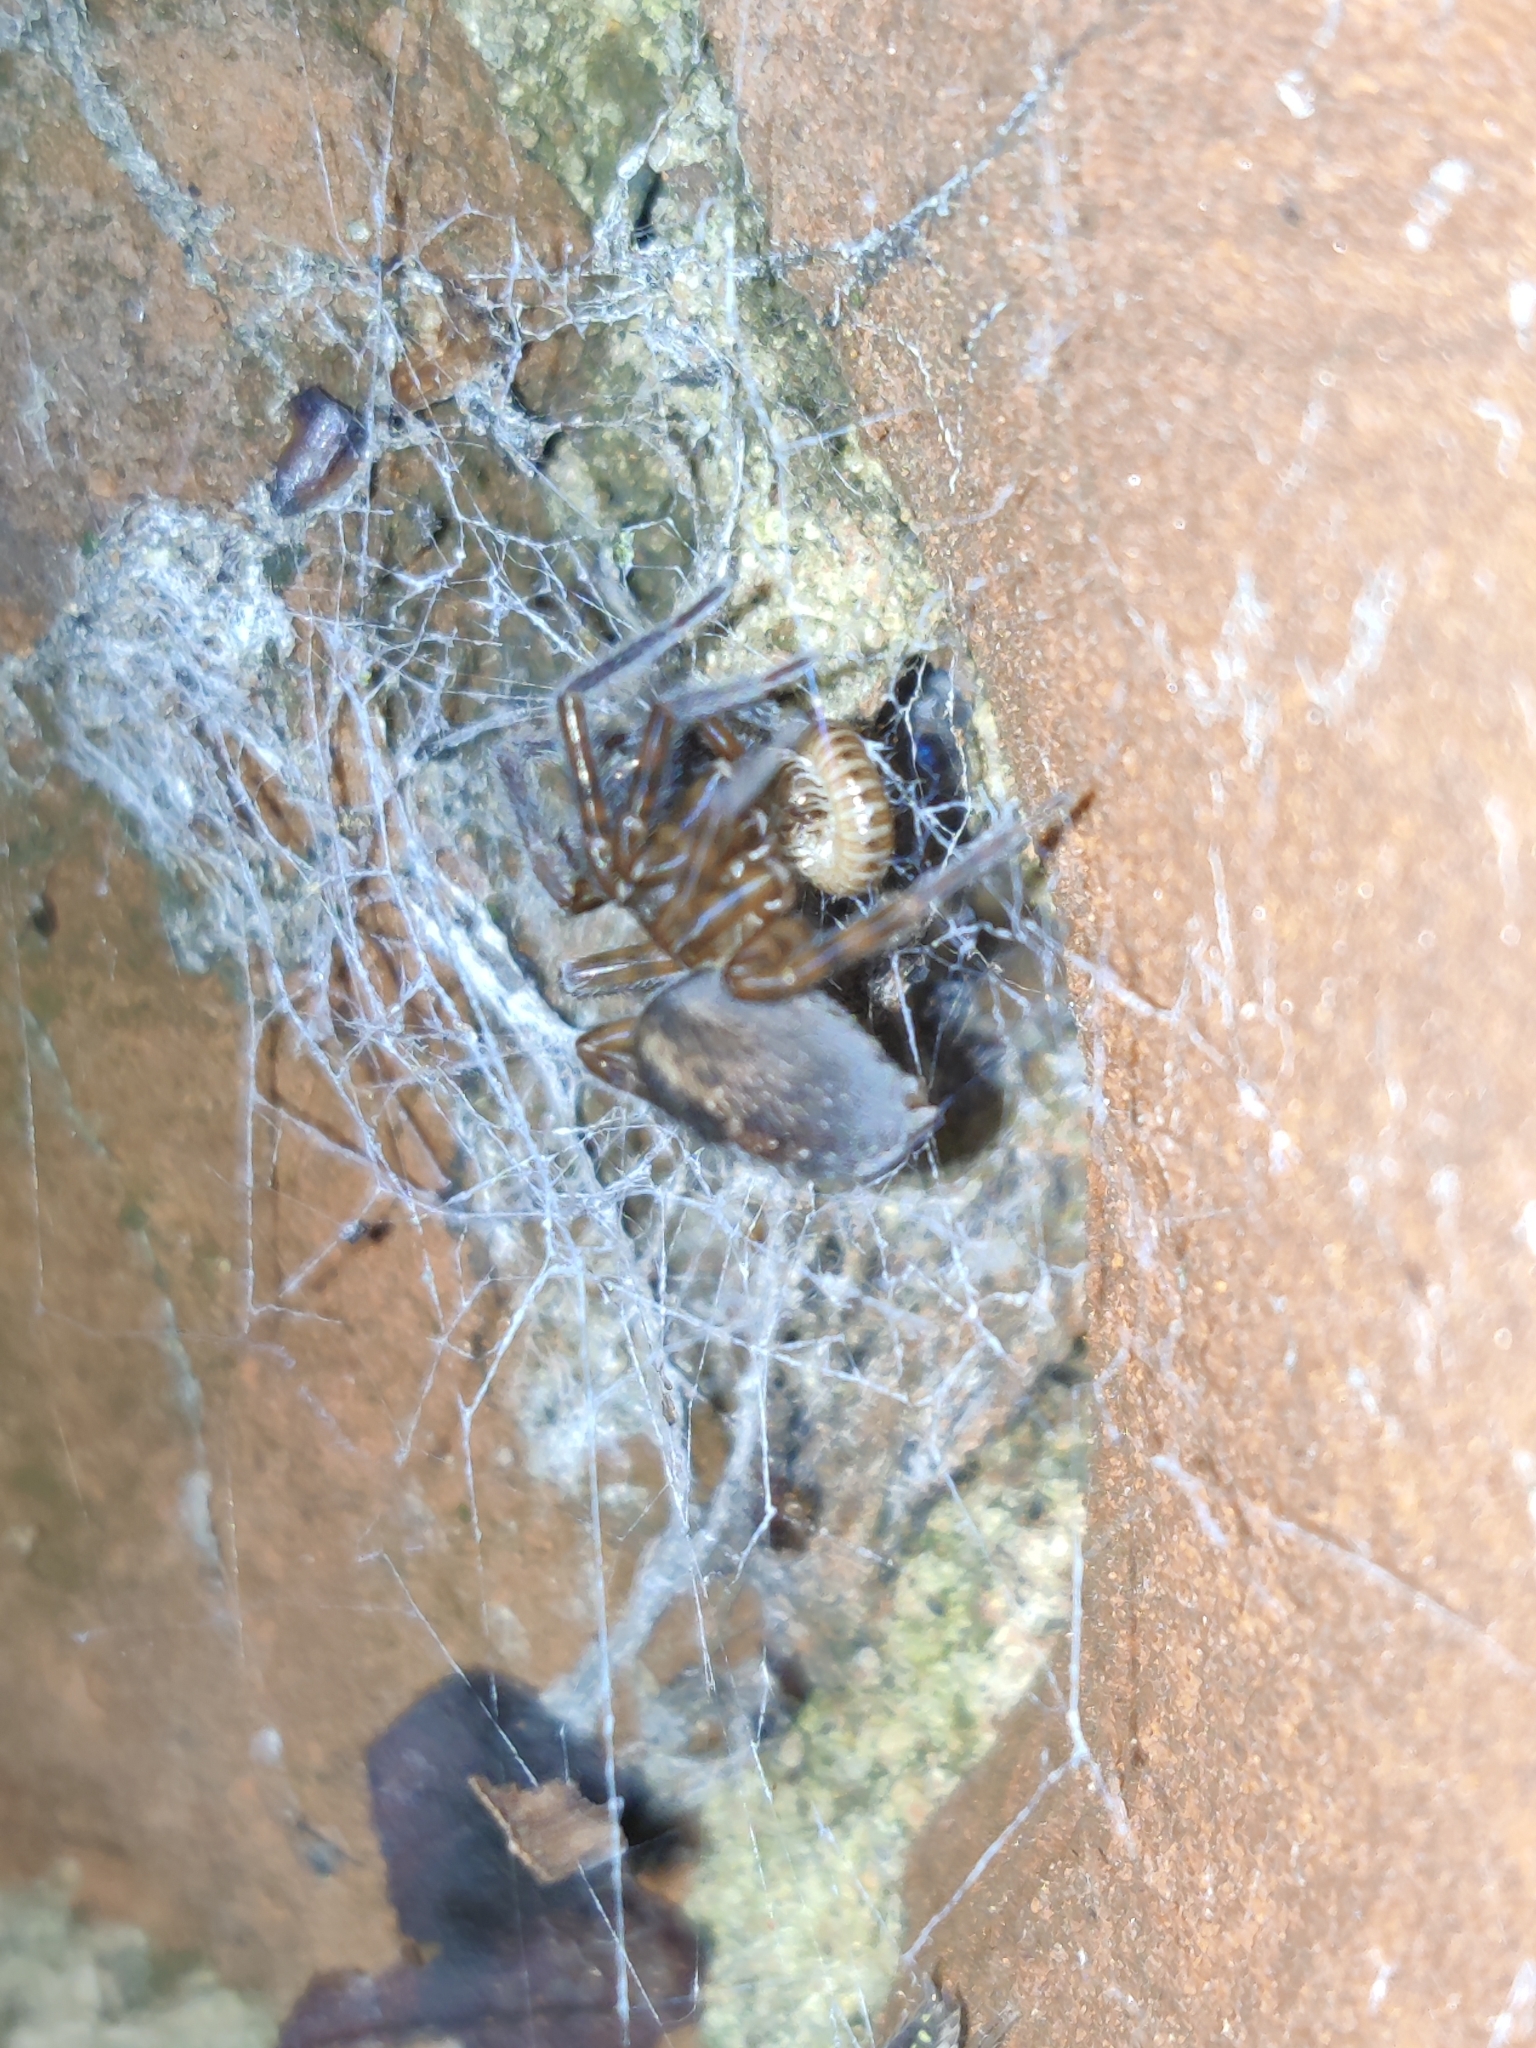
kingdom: Animalia
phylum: Arthropoda
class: Arachnida
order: Araneae
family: Amaurobiidae
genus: Amaurobius
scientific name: Amaurobius similis
